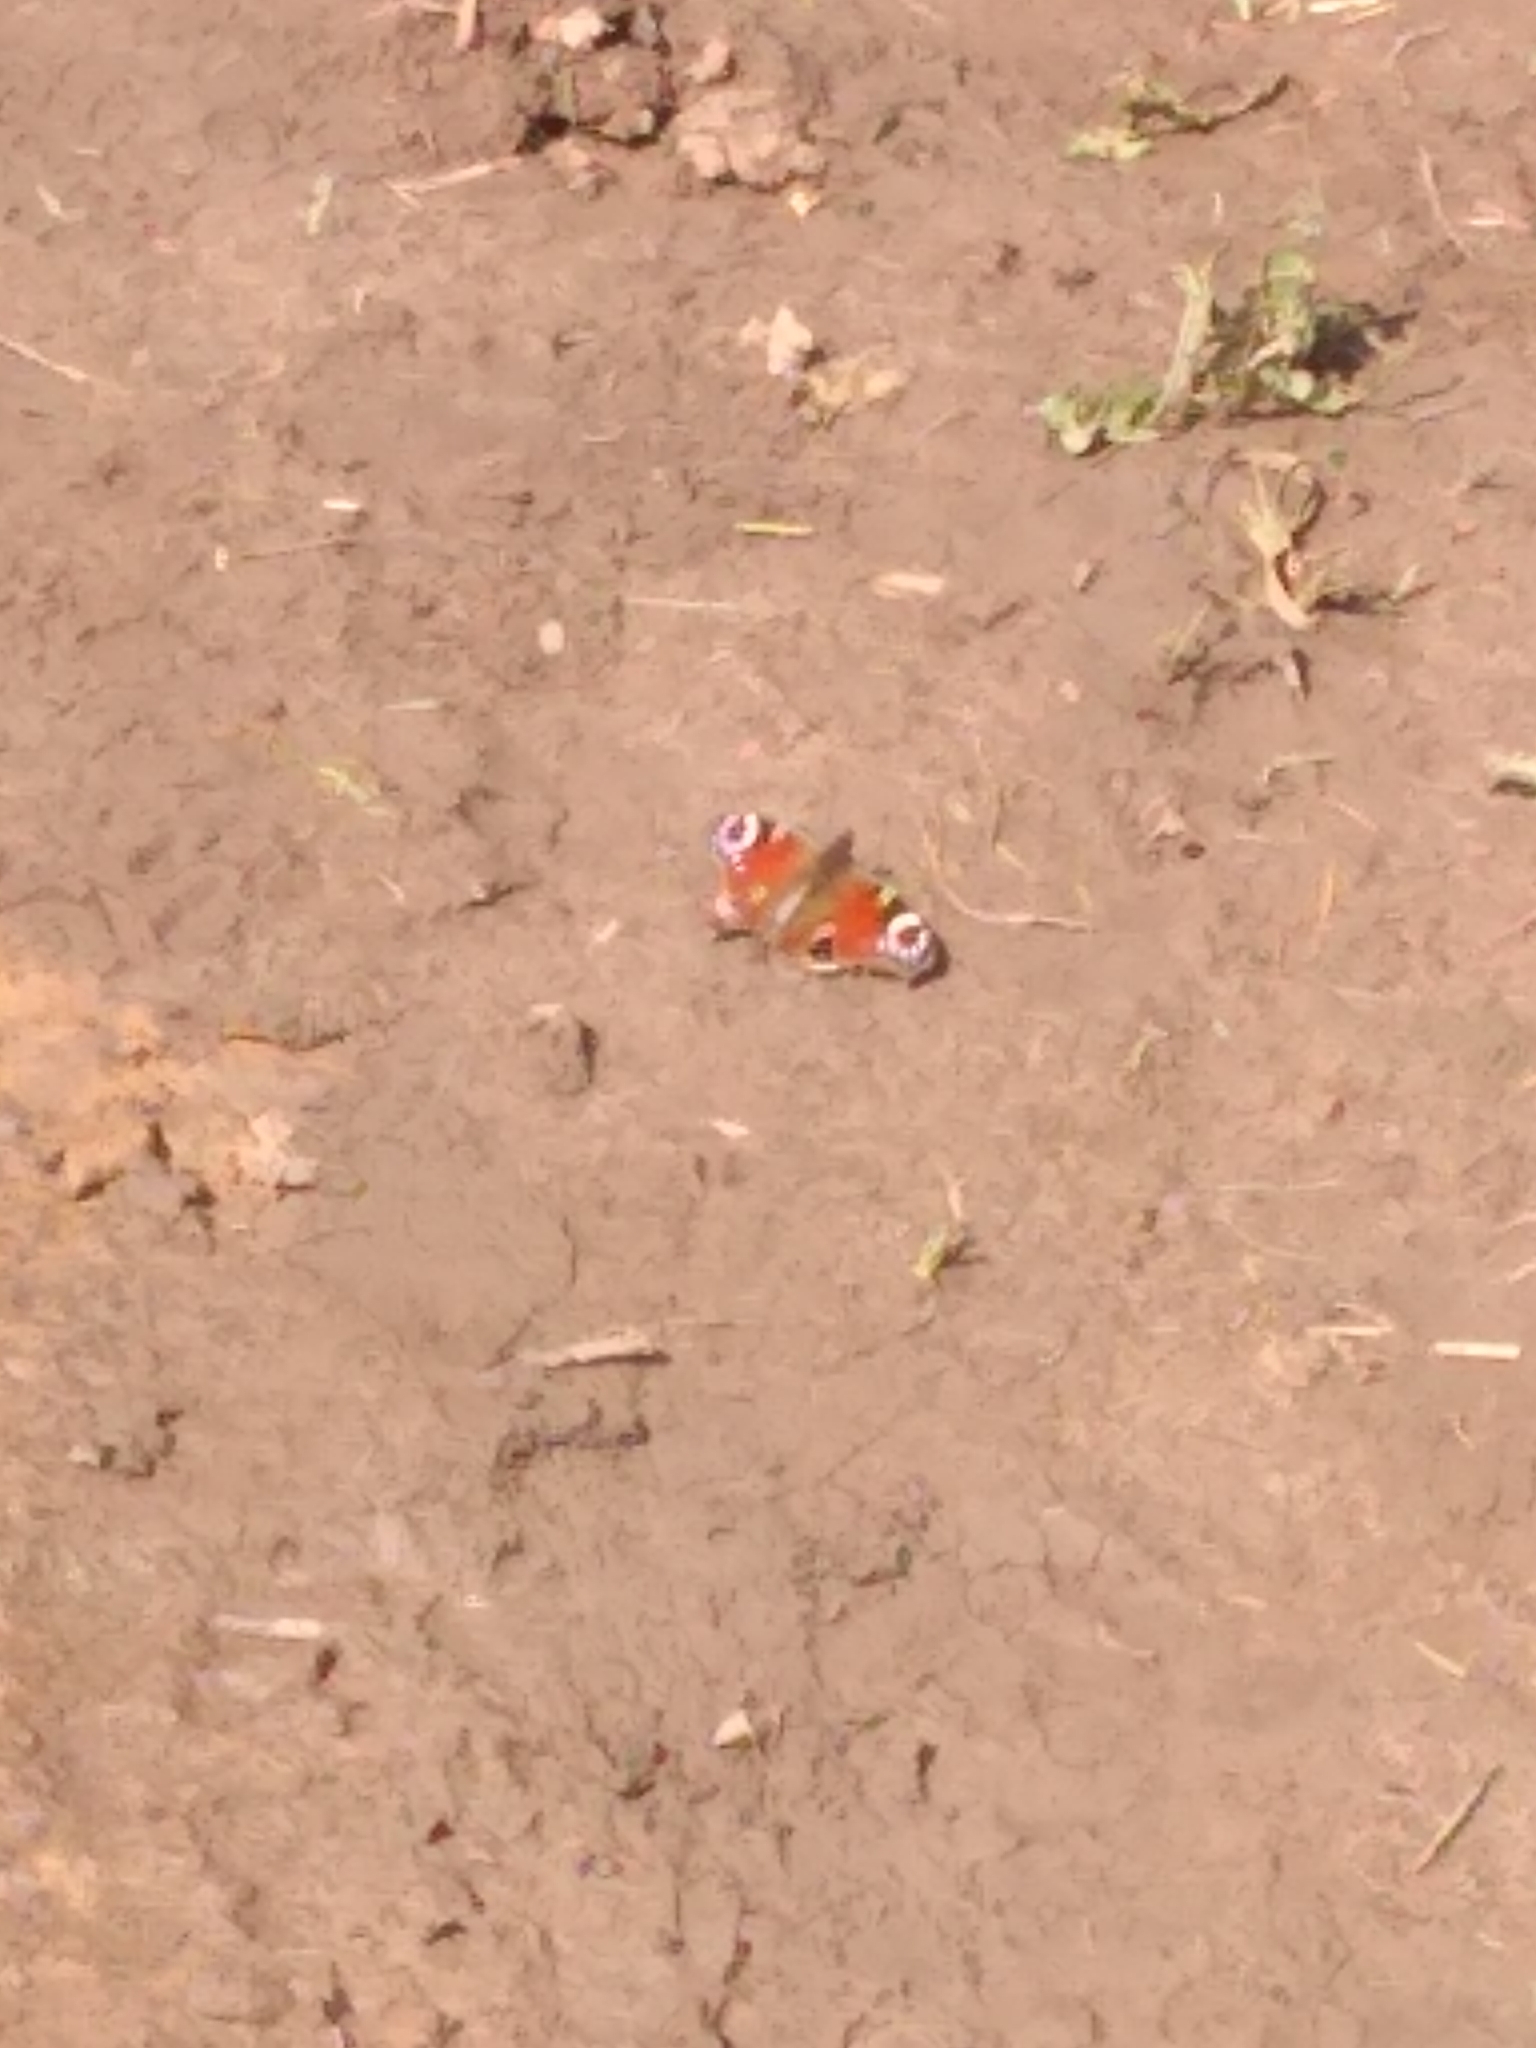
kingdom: Animalia
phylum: Arthropoda
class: Insecta
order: Lepidoptera
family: Nymphalidae
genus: Aglais
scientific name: Aglais io
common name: Peacock
